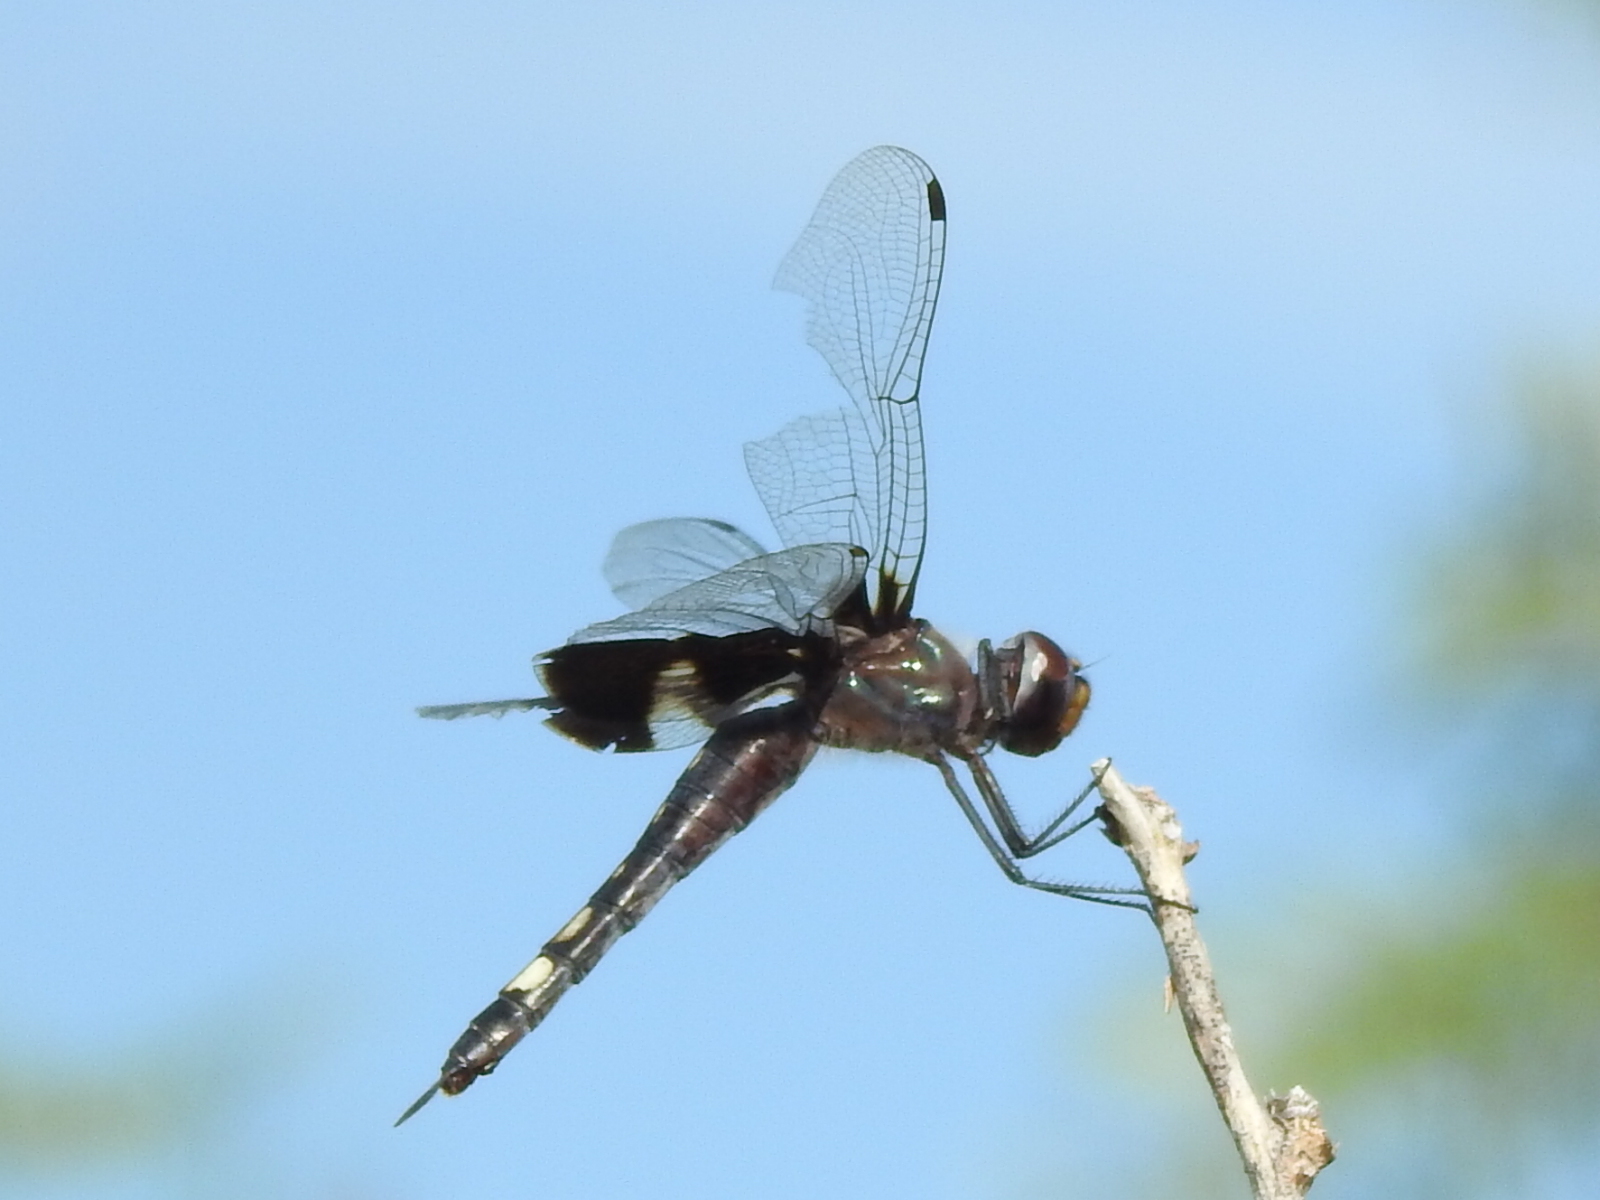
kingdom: Animalia
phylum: Arthropoda
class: Insecta
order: Odonata
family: Libellulidae
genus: Tramea
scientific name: Tramea lacerata
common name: Black saddlebags
